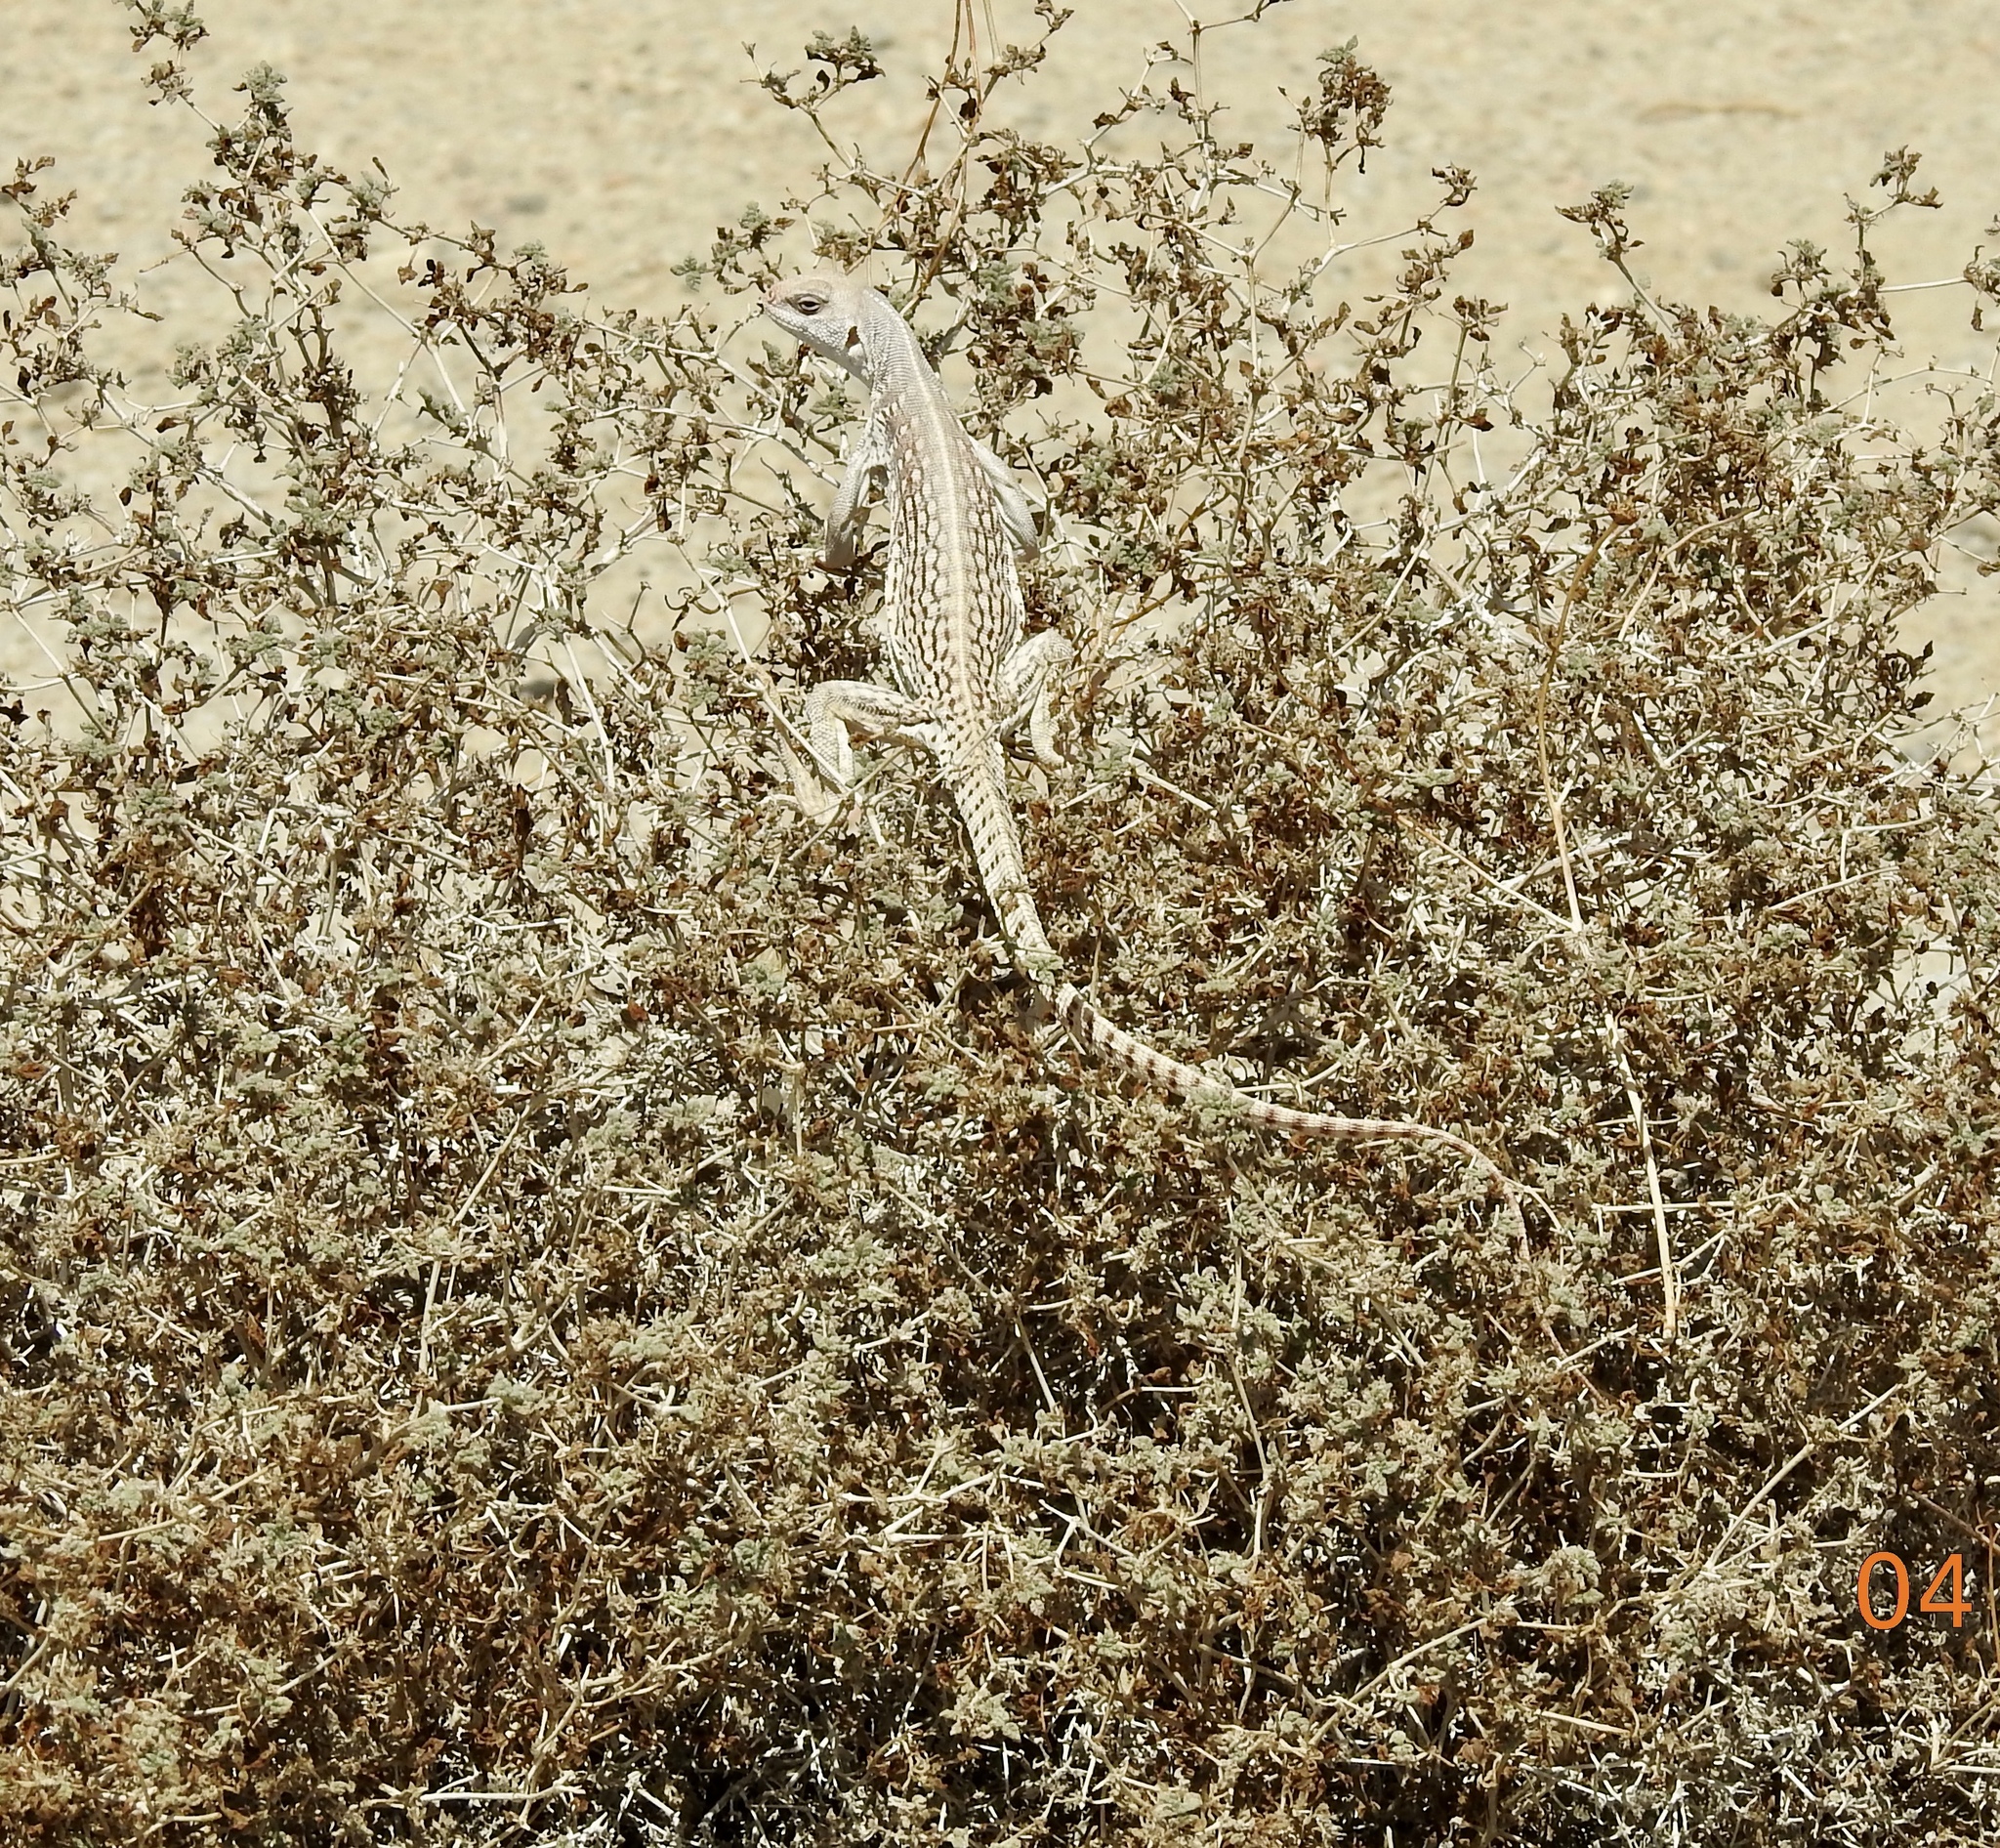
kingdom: Animalia
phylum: Chordata
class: Squamata
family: Iguanidae
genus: Dipsosaurus
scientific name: Dipsosaurus dorsalis
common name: Desert iguana
